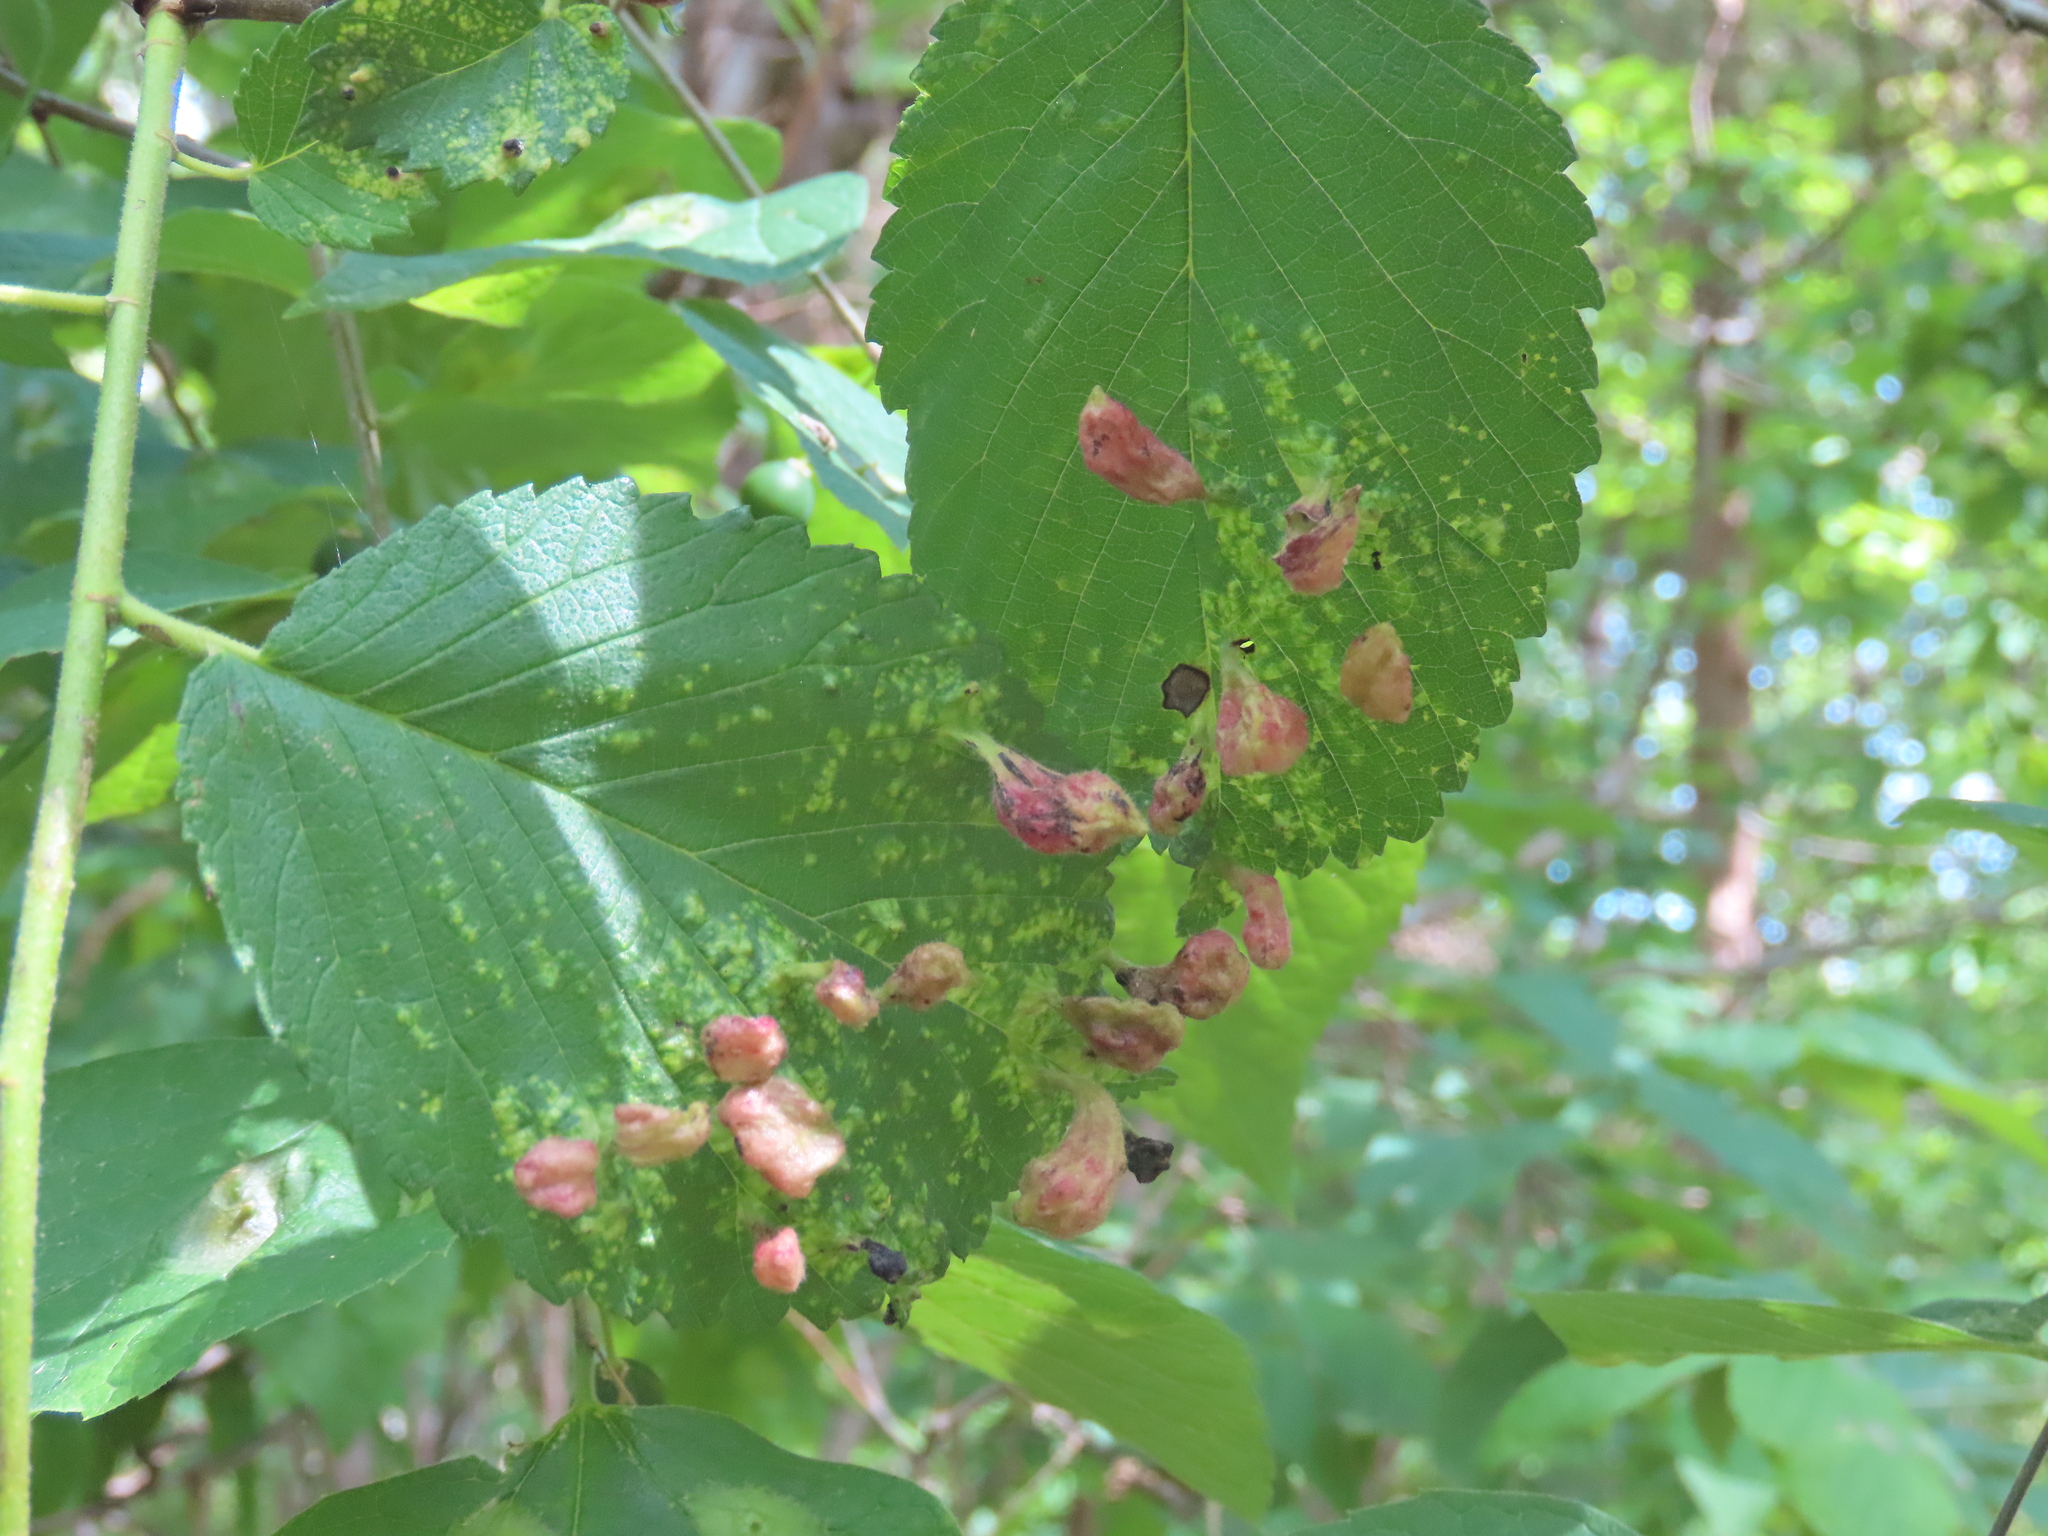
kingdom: Animalia
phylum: Arthropoda
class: Insecta
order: Hemiptera
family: Aphididae
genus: Tetraneura
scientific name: Tetraneura nigriabdominalis
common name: Aphid
